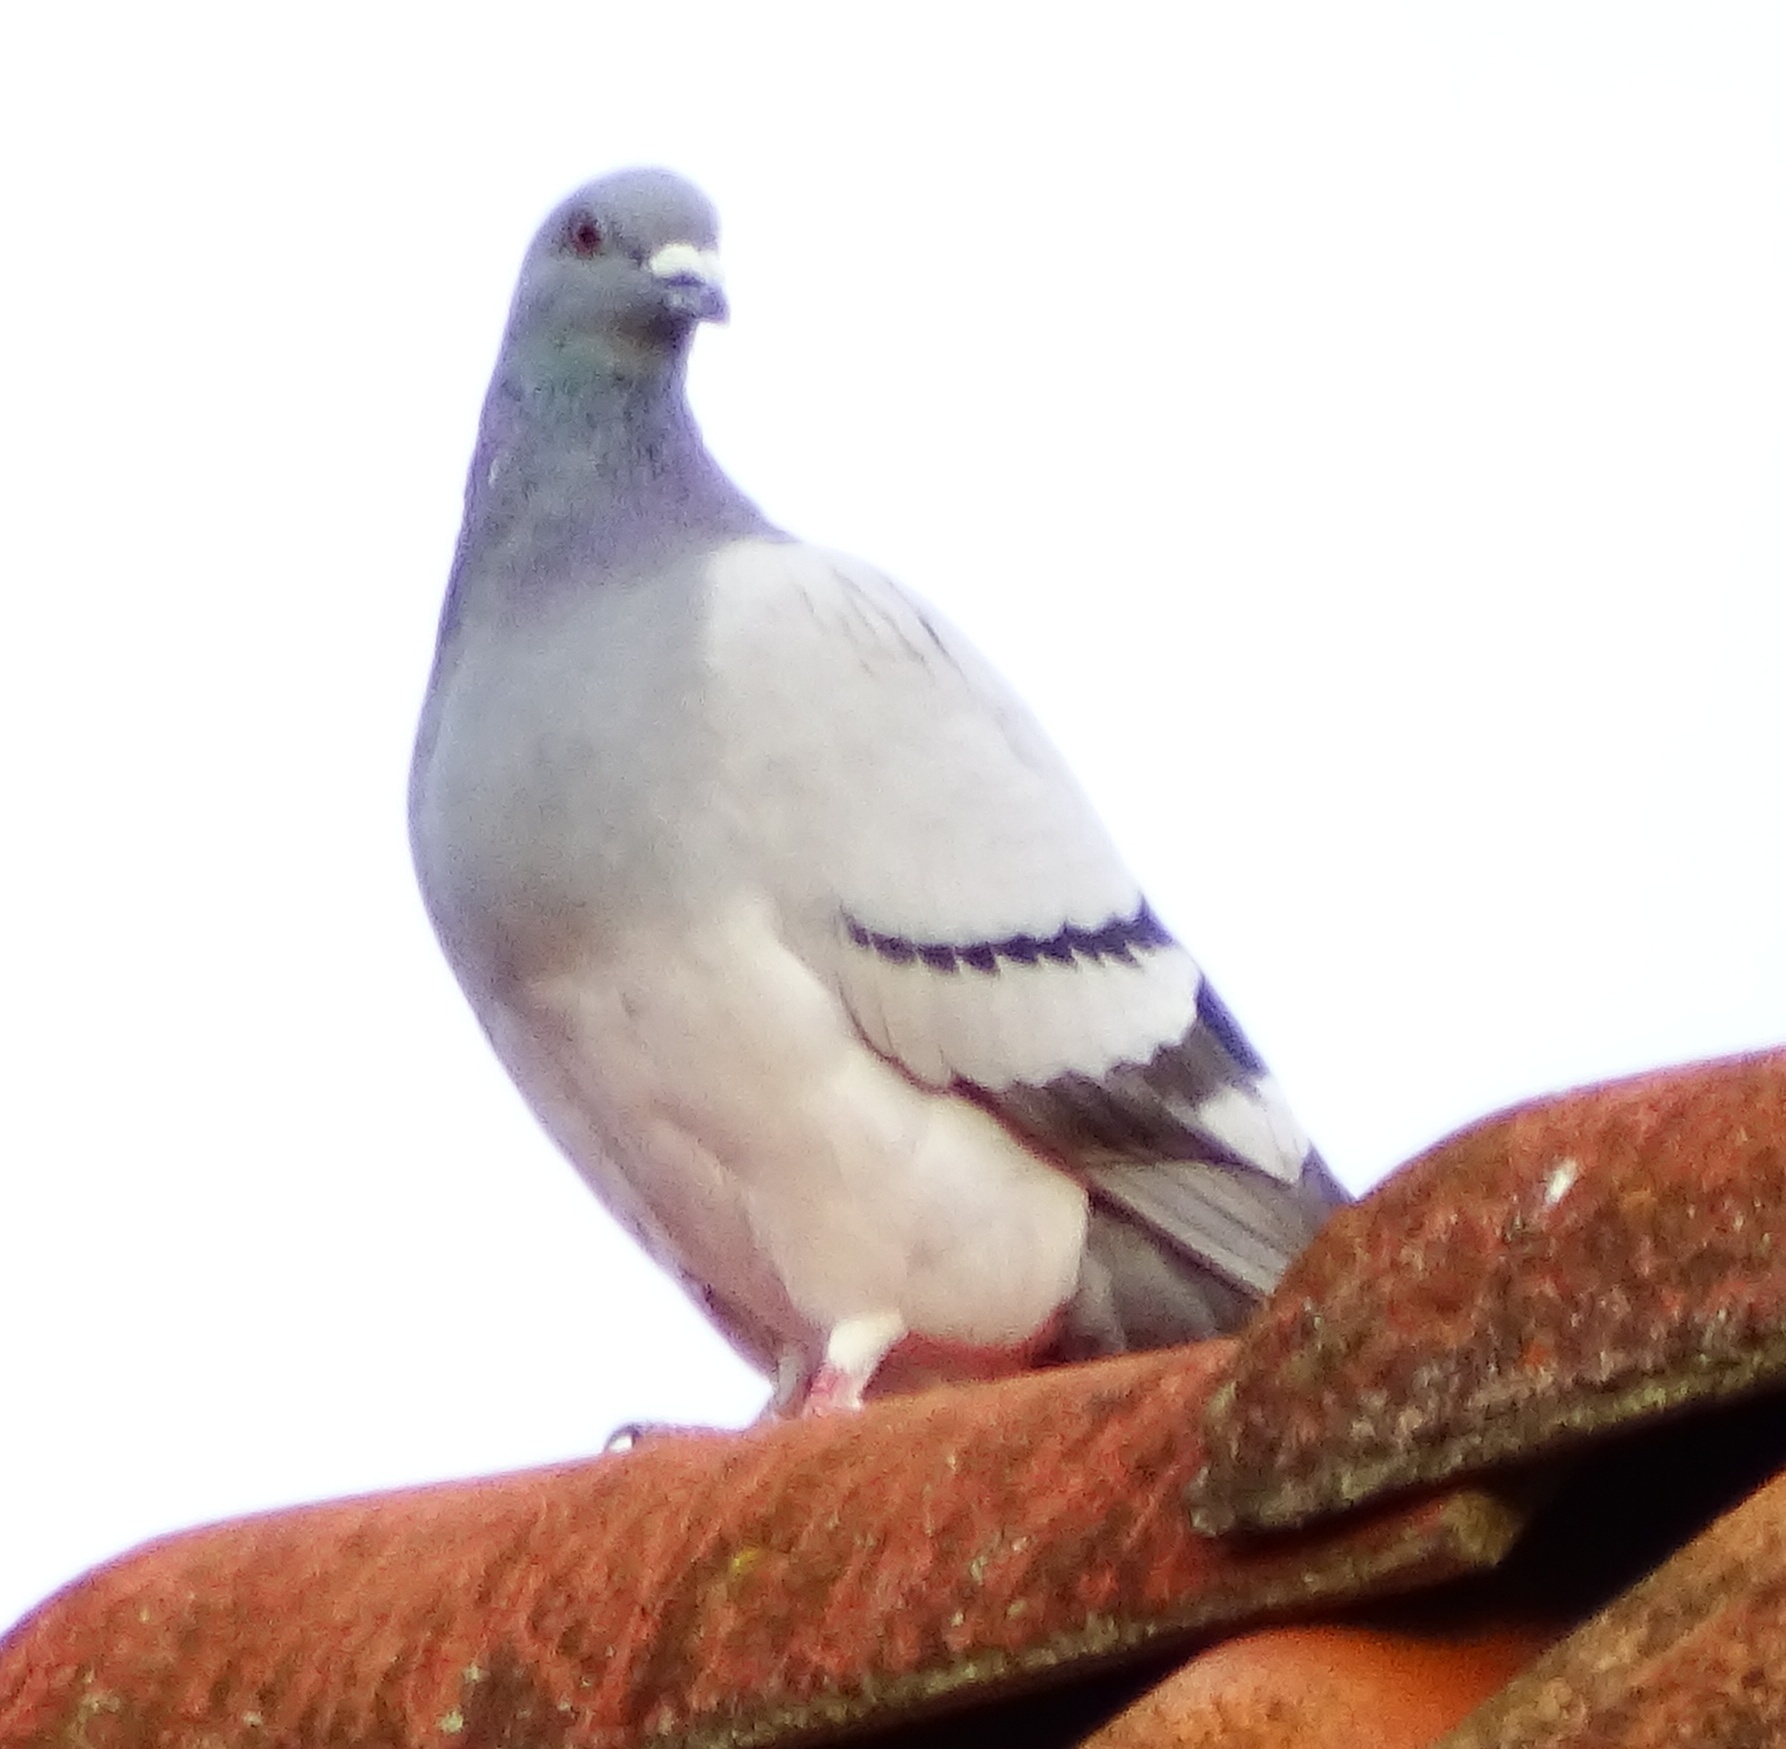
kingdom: Animalia
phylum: Chordata
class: Aves
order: Columbiformes
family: Columbidae
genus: Columba
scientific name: Columba livia
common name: Rock pigeon
